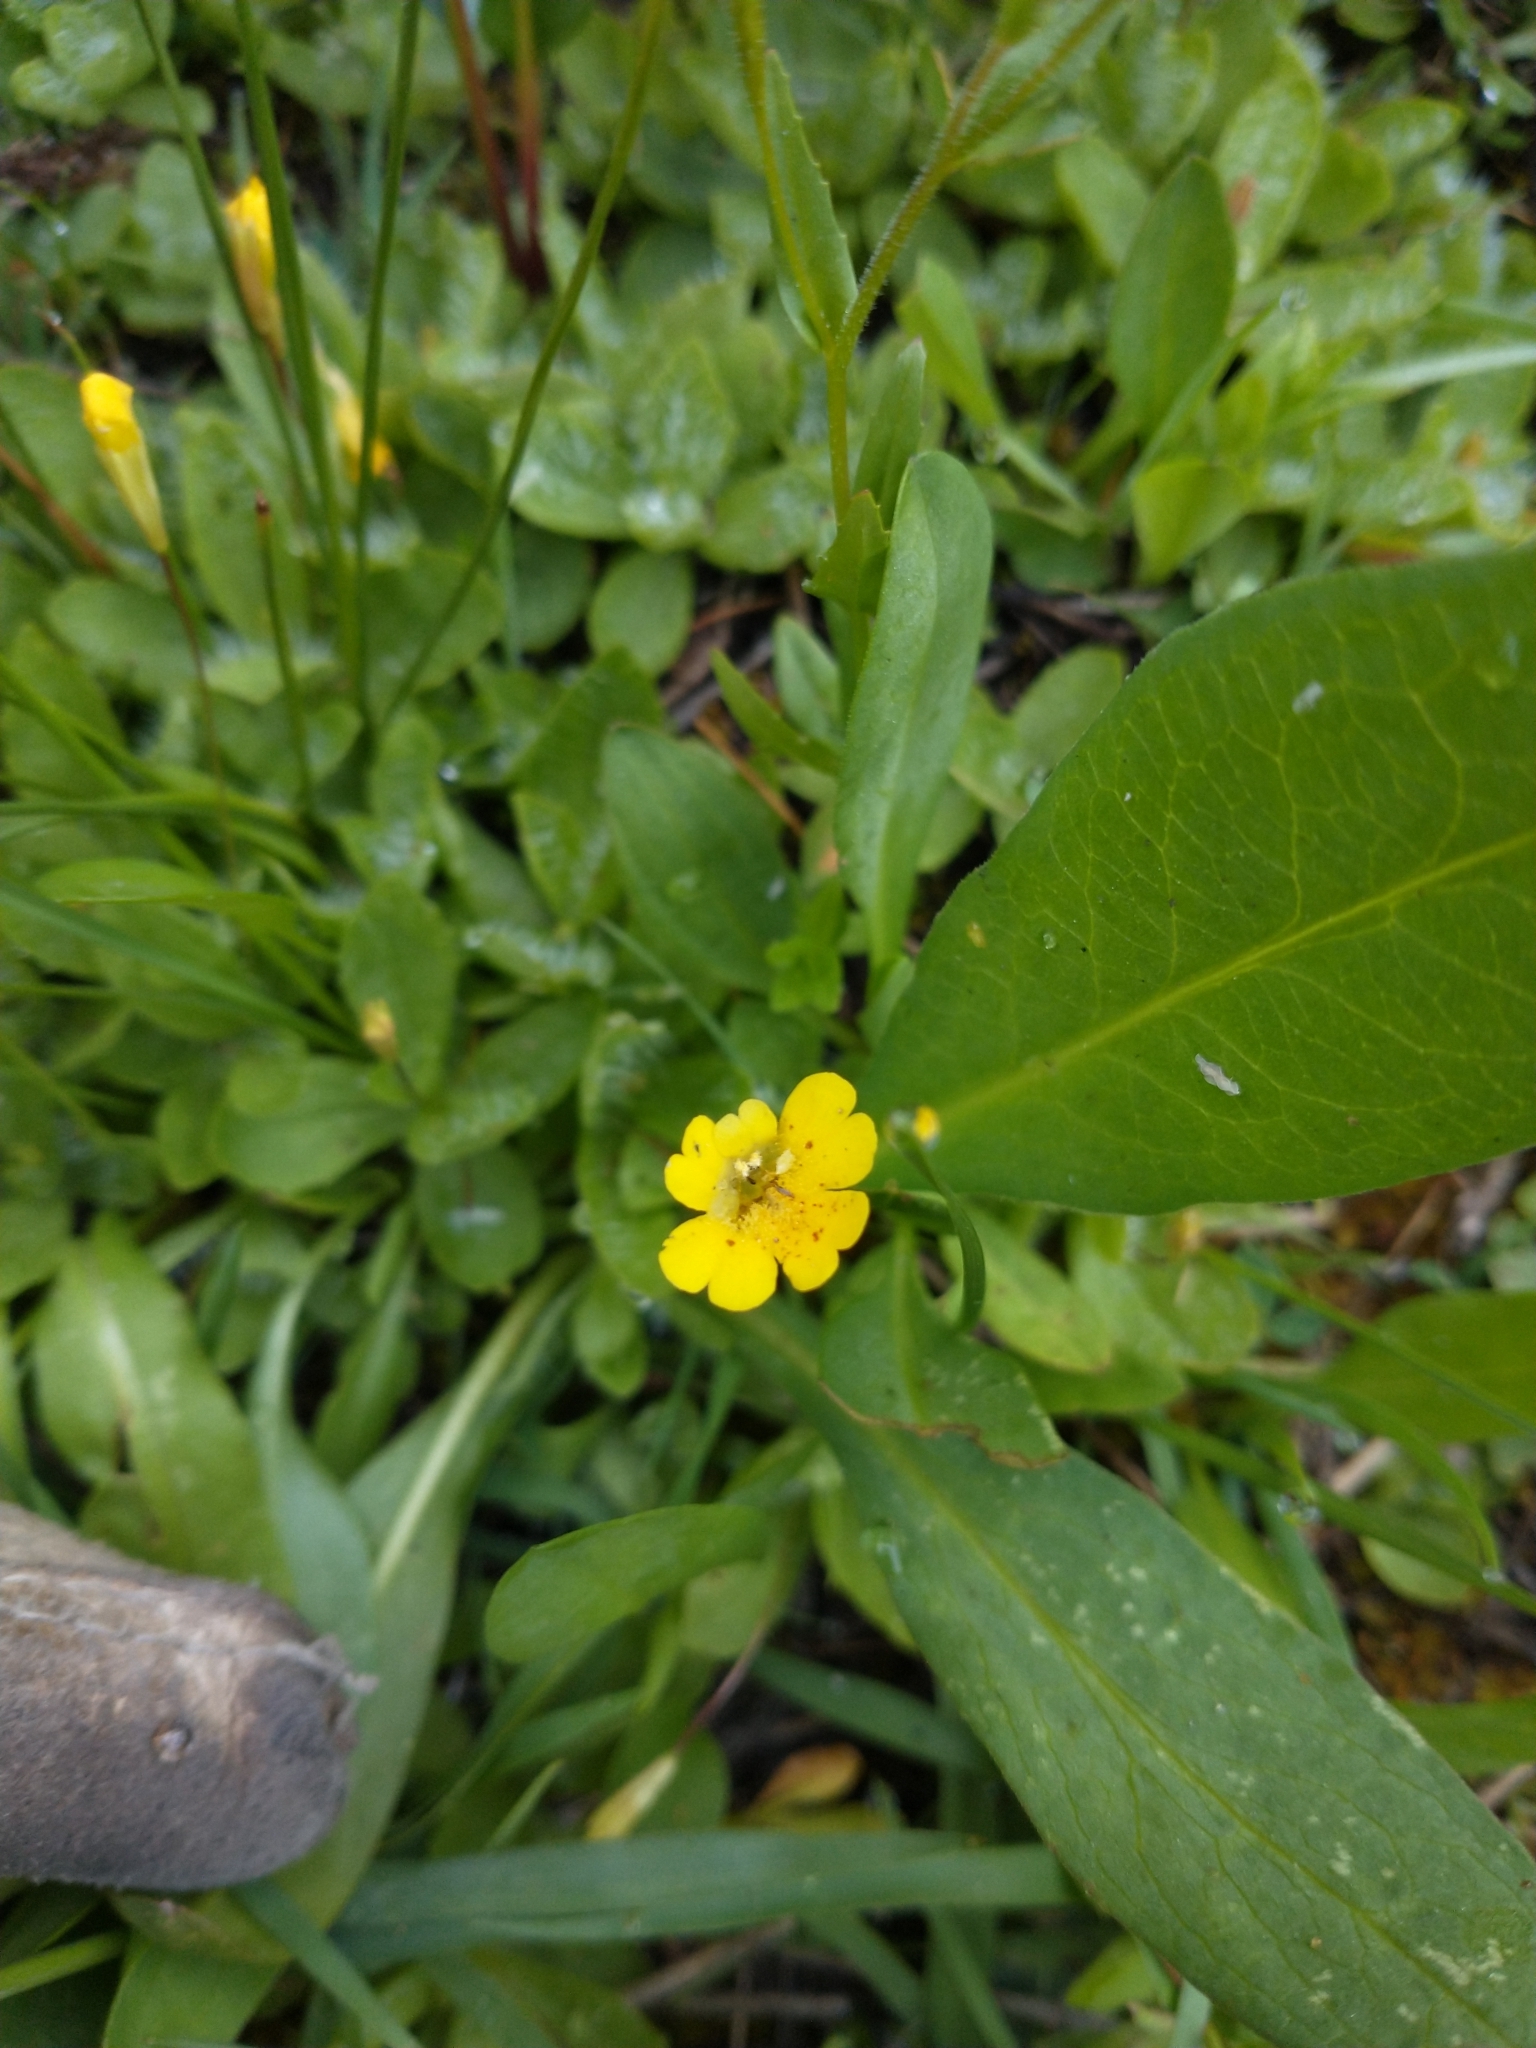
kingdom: Plantae
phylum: Tracheophyta
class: Magnoliopsida
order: Lamiales
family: Phrymaceae
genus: Erythranthe
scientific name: Erythranthe primuloides
